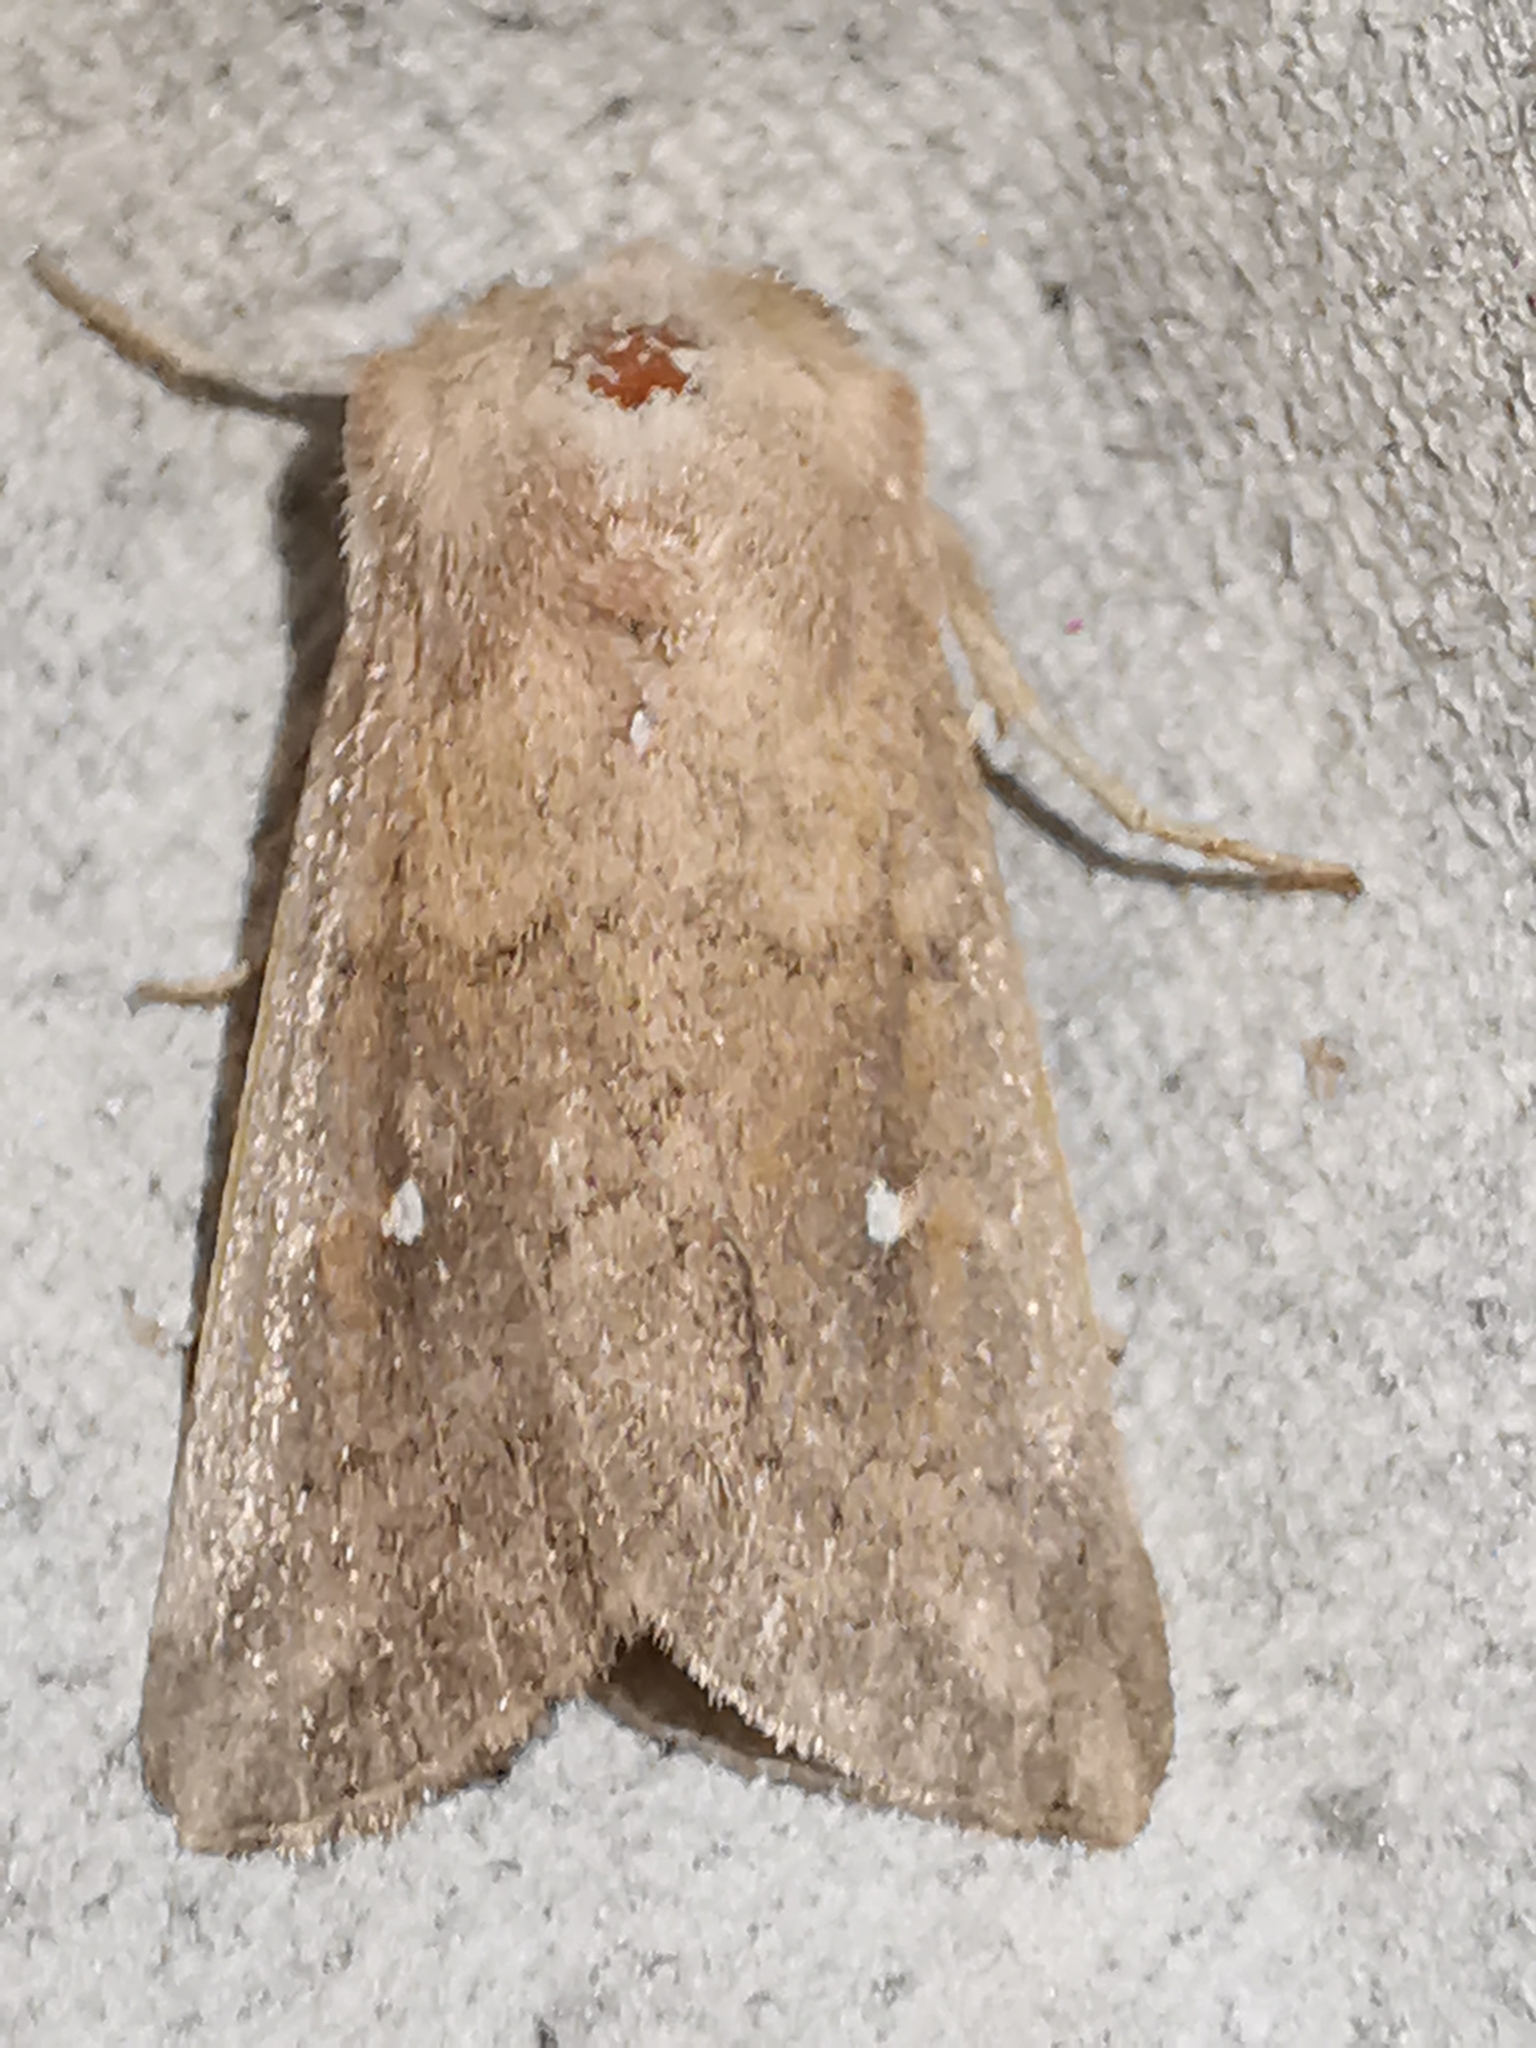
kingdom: Animalia
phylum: Arthropoda
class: Insecta
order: Lepidoptera
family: Noctuidae
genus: Mythimna
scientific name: Mythimna albipuncta
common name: White-point
